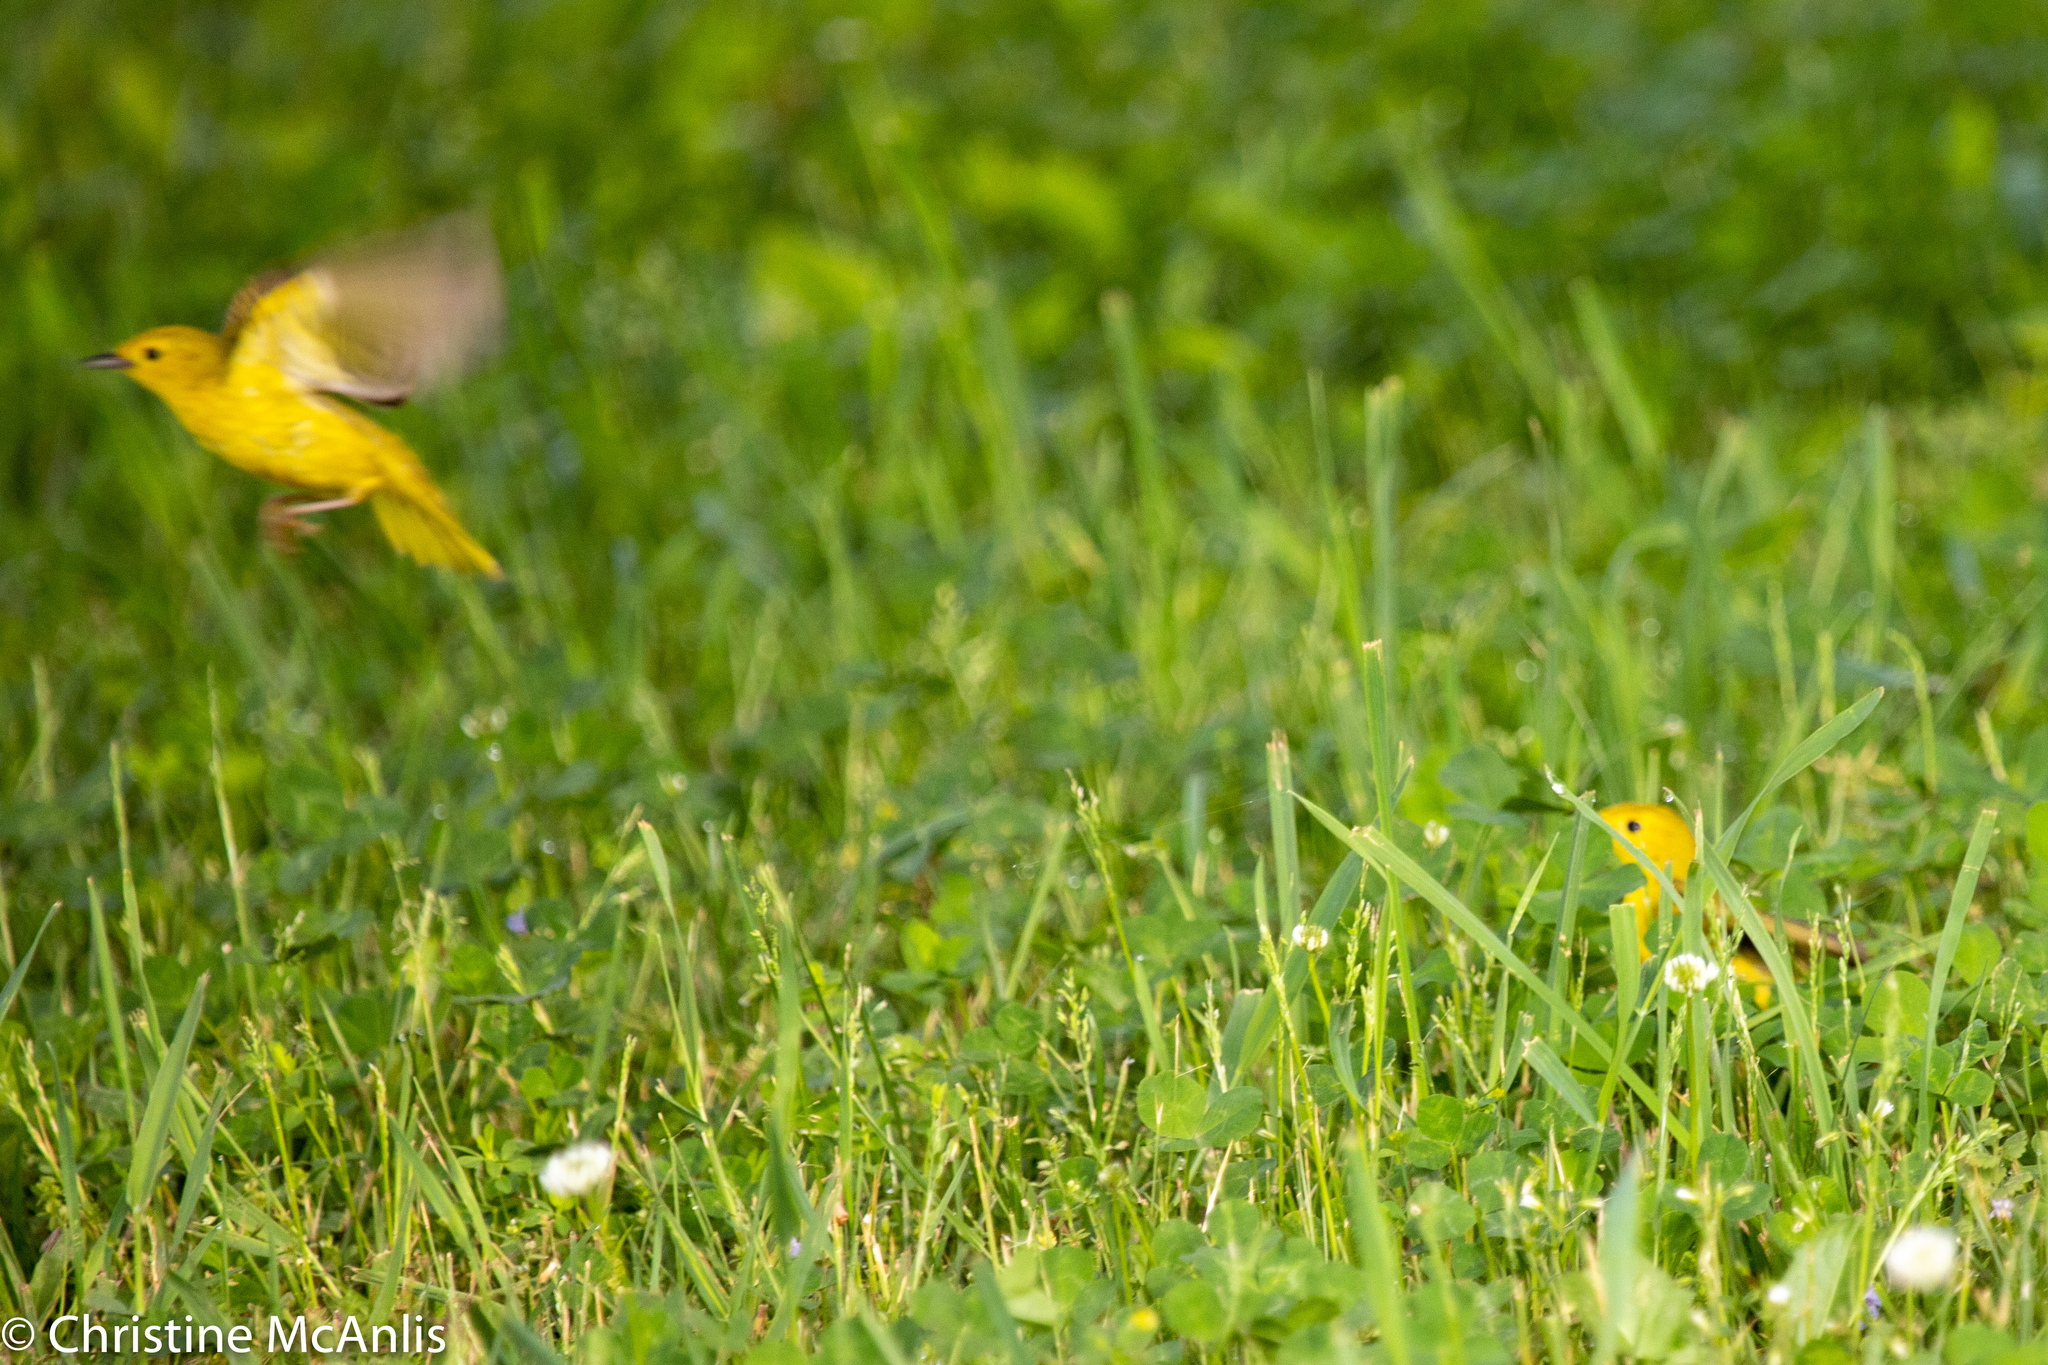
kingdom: Animalia
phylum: Chordata
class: Aves
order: Passeriformes
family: Parulidae
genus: Setophaga
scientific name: Setophaga petechia
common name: Yellow warbler
